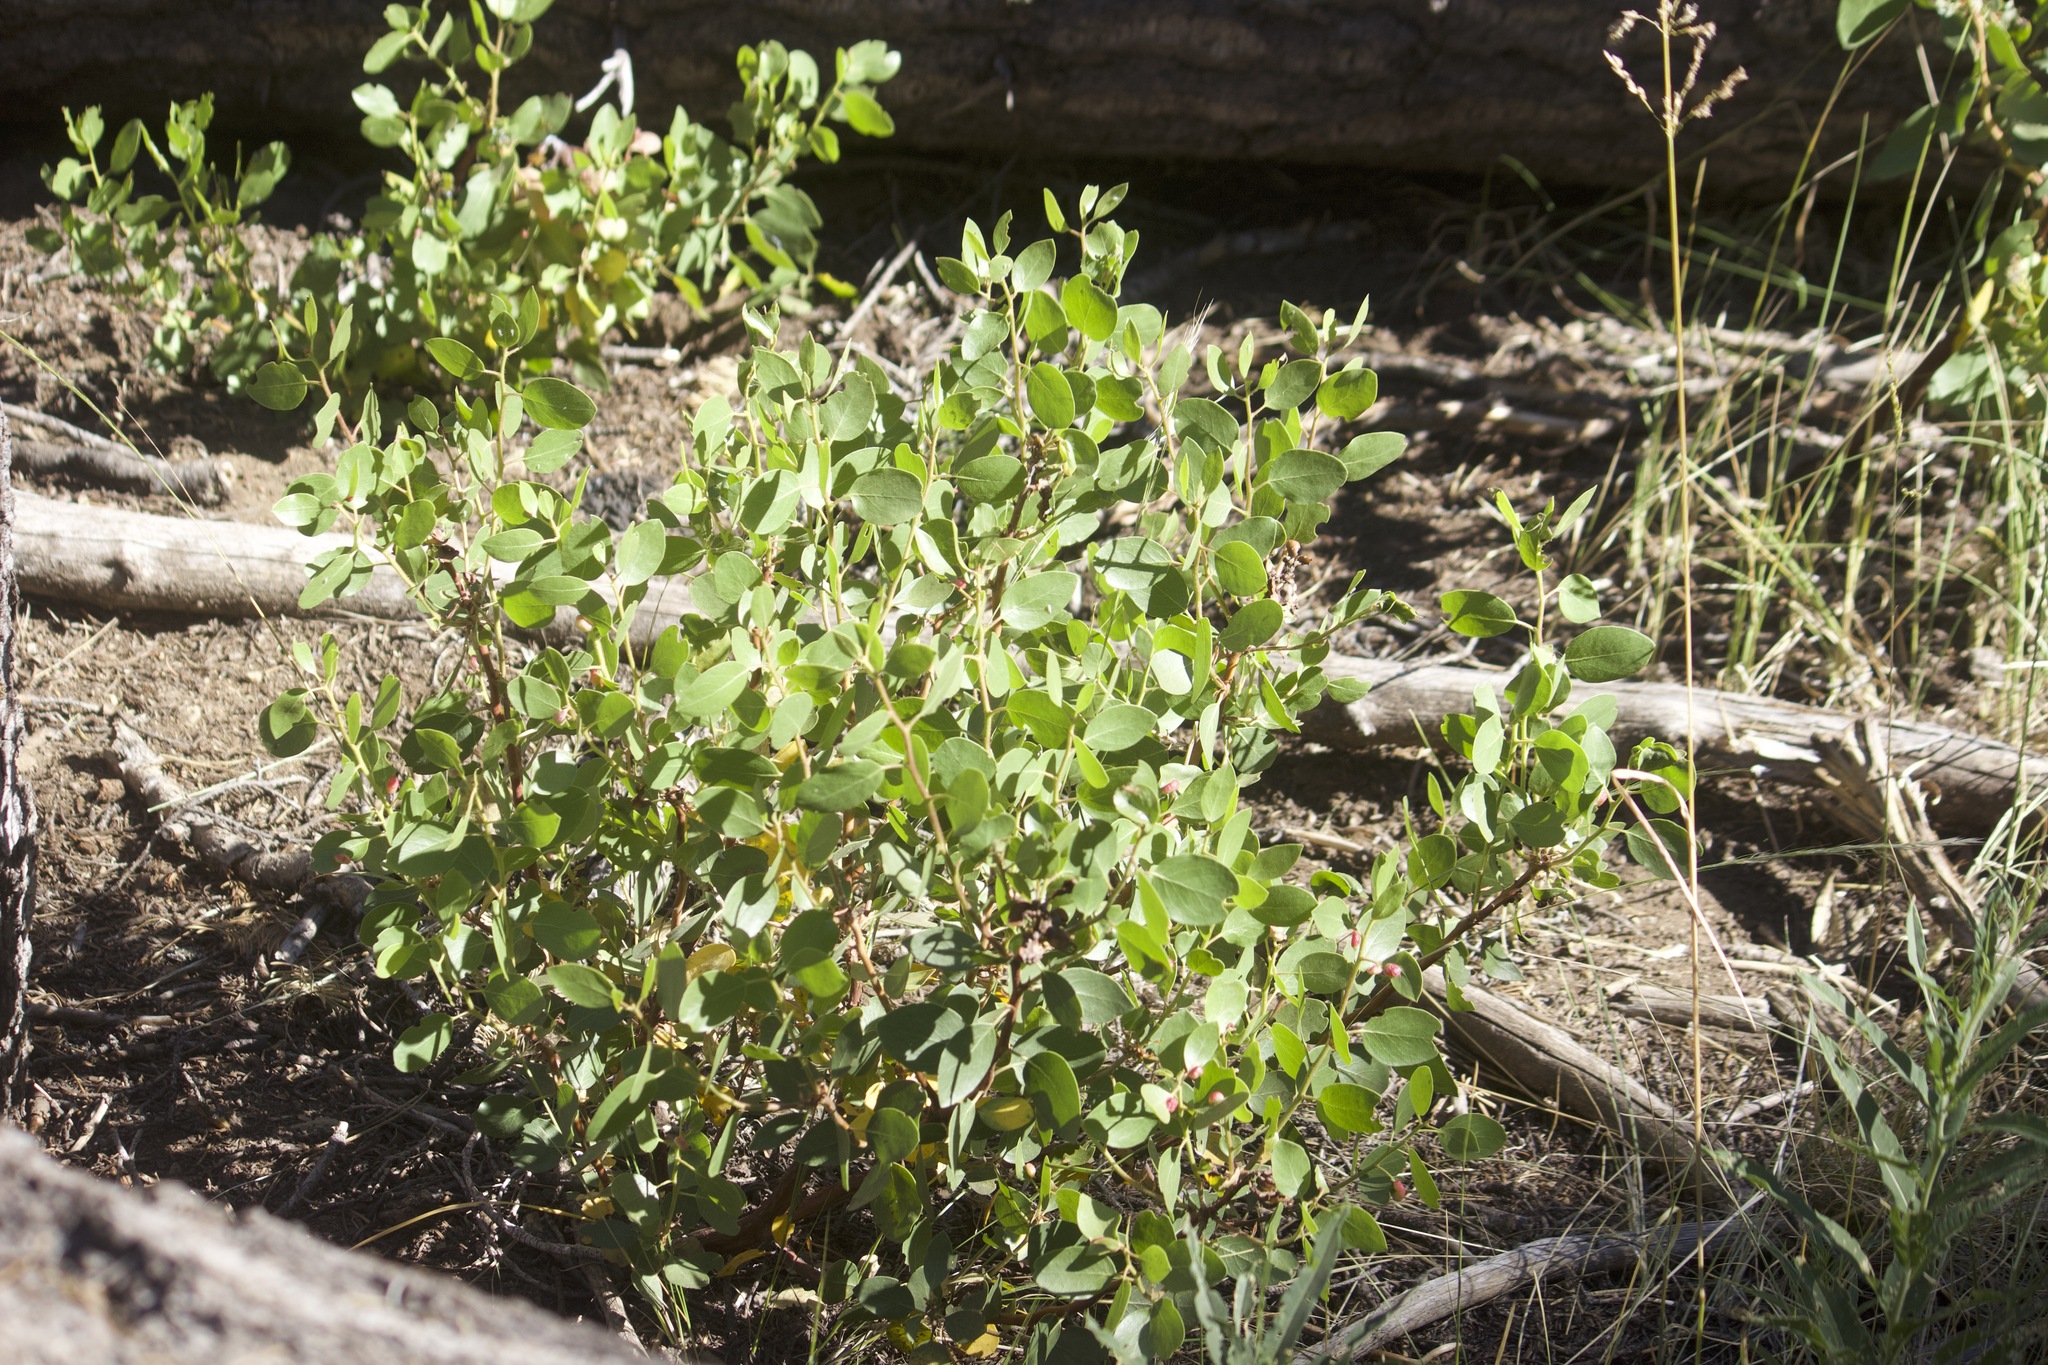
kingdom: Plantae
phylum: Tracheophyta
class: Magnoliopsida
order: Ericales
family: Ericaceae
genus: Arctostaphylos
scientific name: Arctostaphylos patula
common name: Green-leaf manzanita
